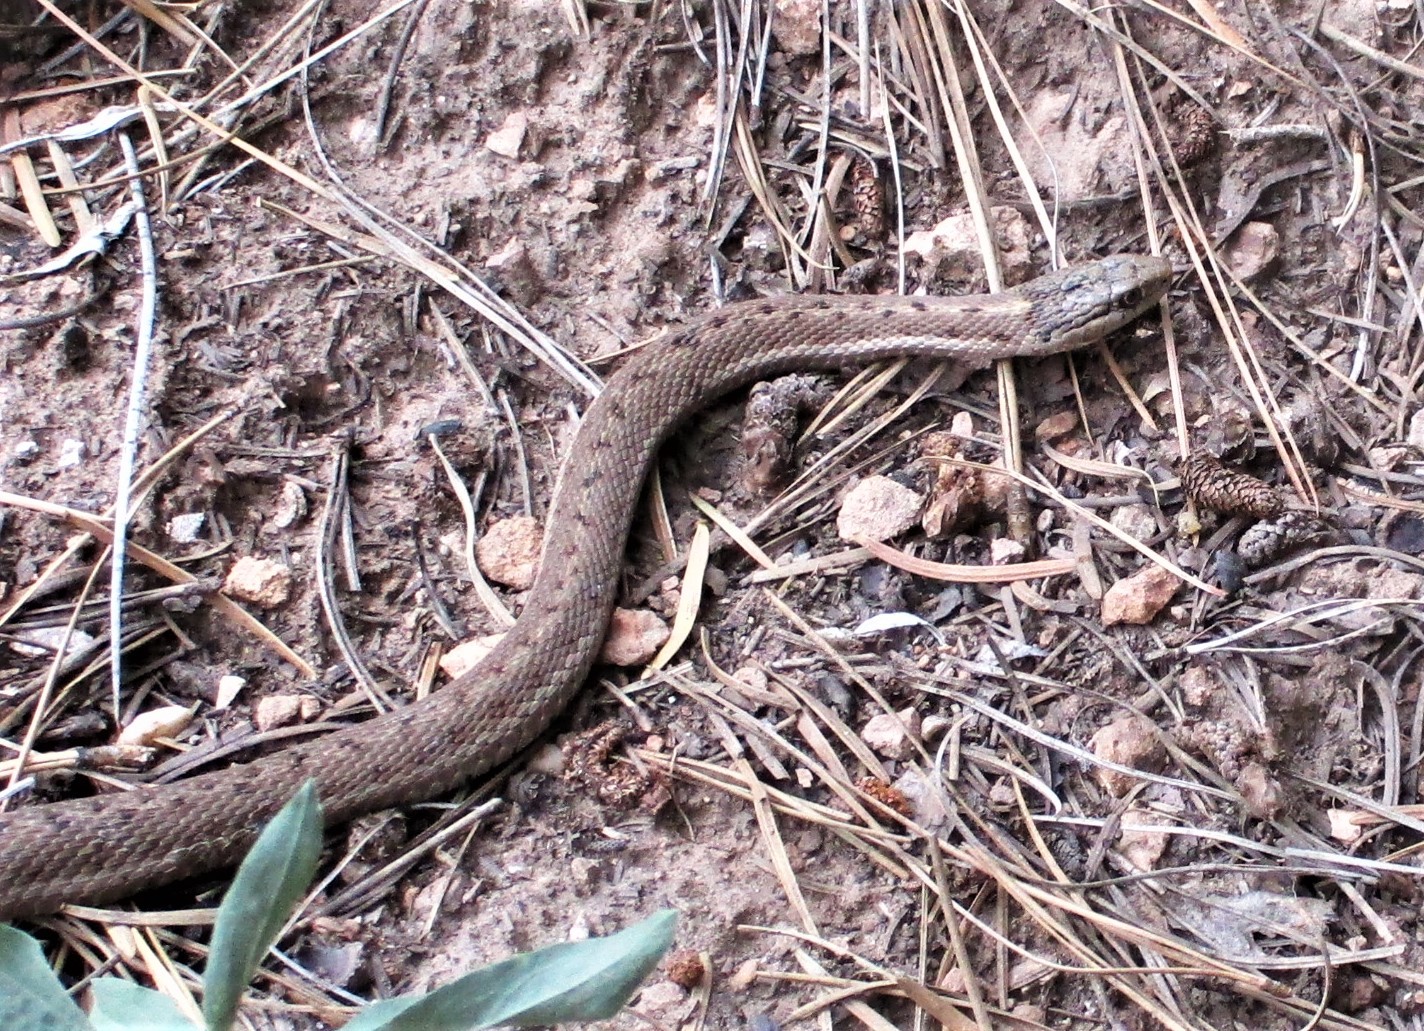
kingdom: Animalia
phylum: Chordata
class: Squamata
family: Colubridae
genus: Thamnophis
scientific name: Thamnophis elegans
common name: Western terrestrial garter snake
